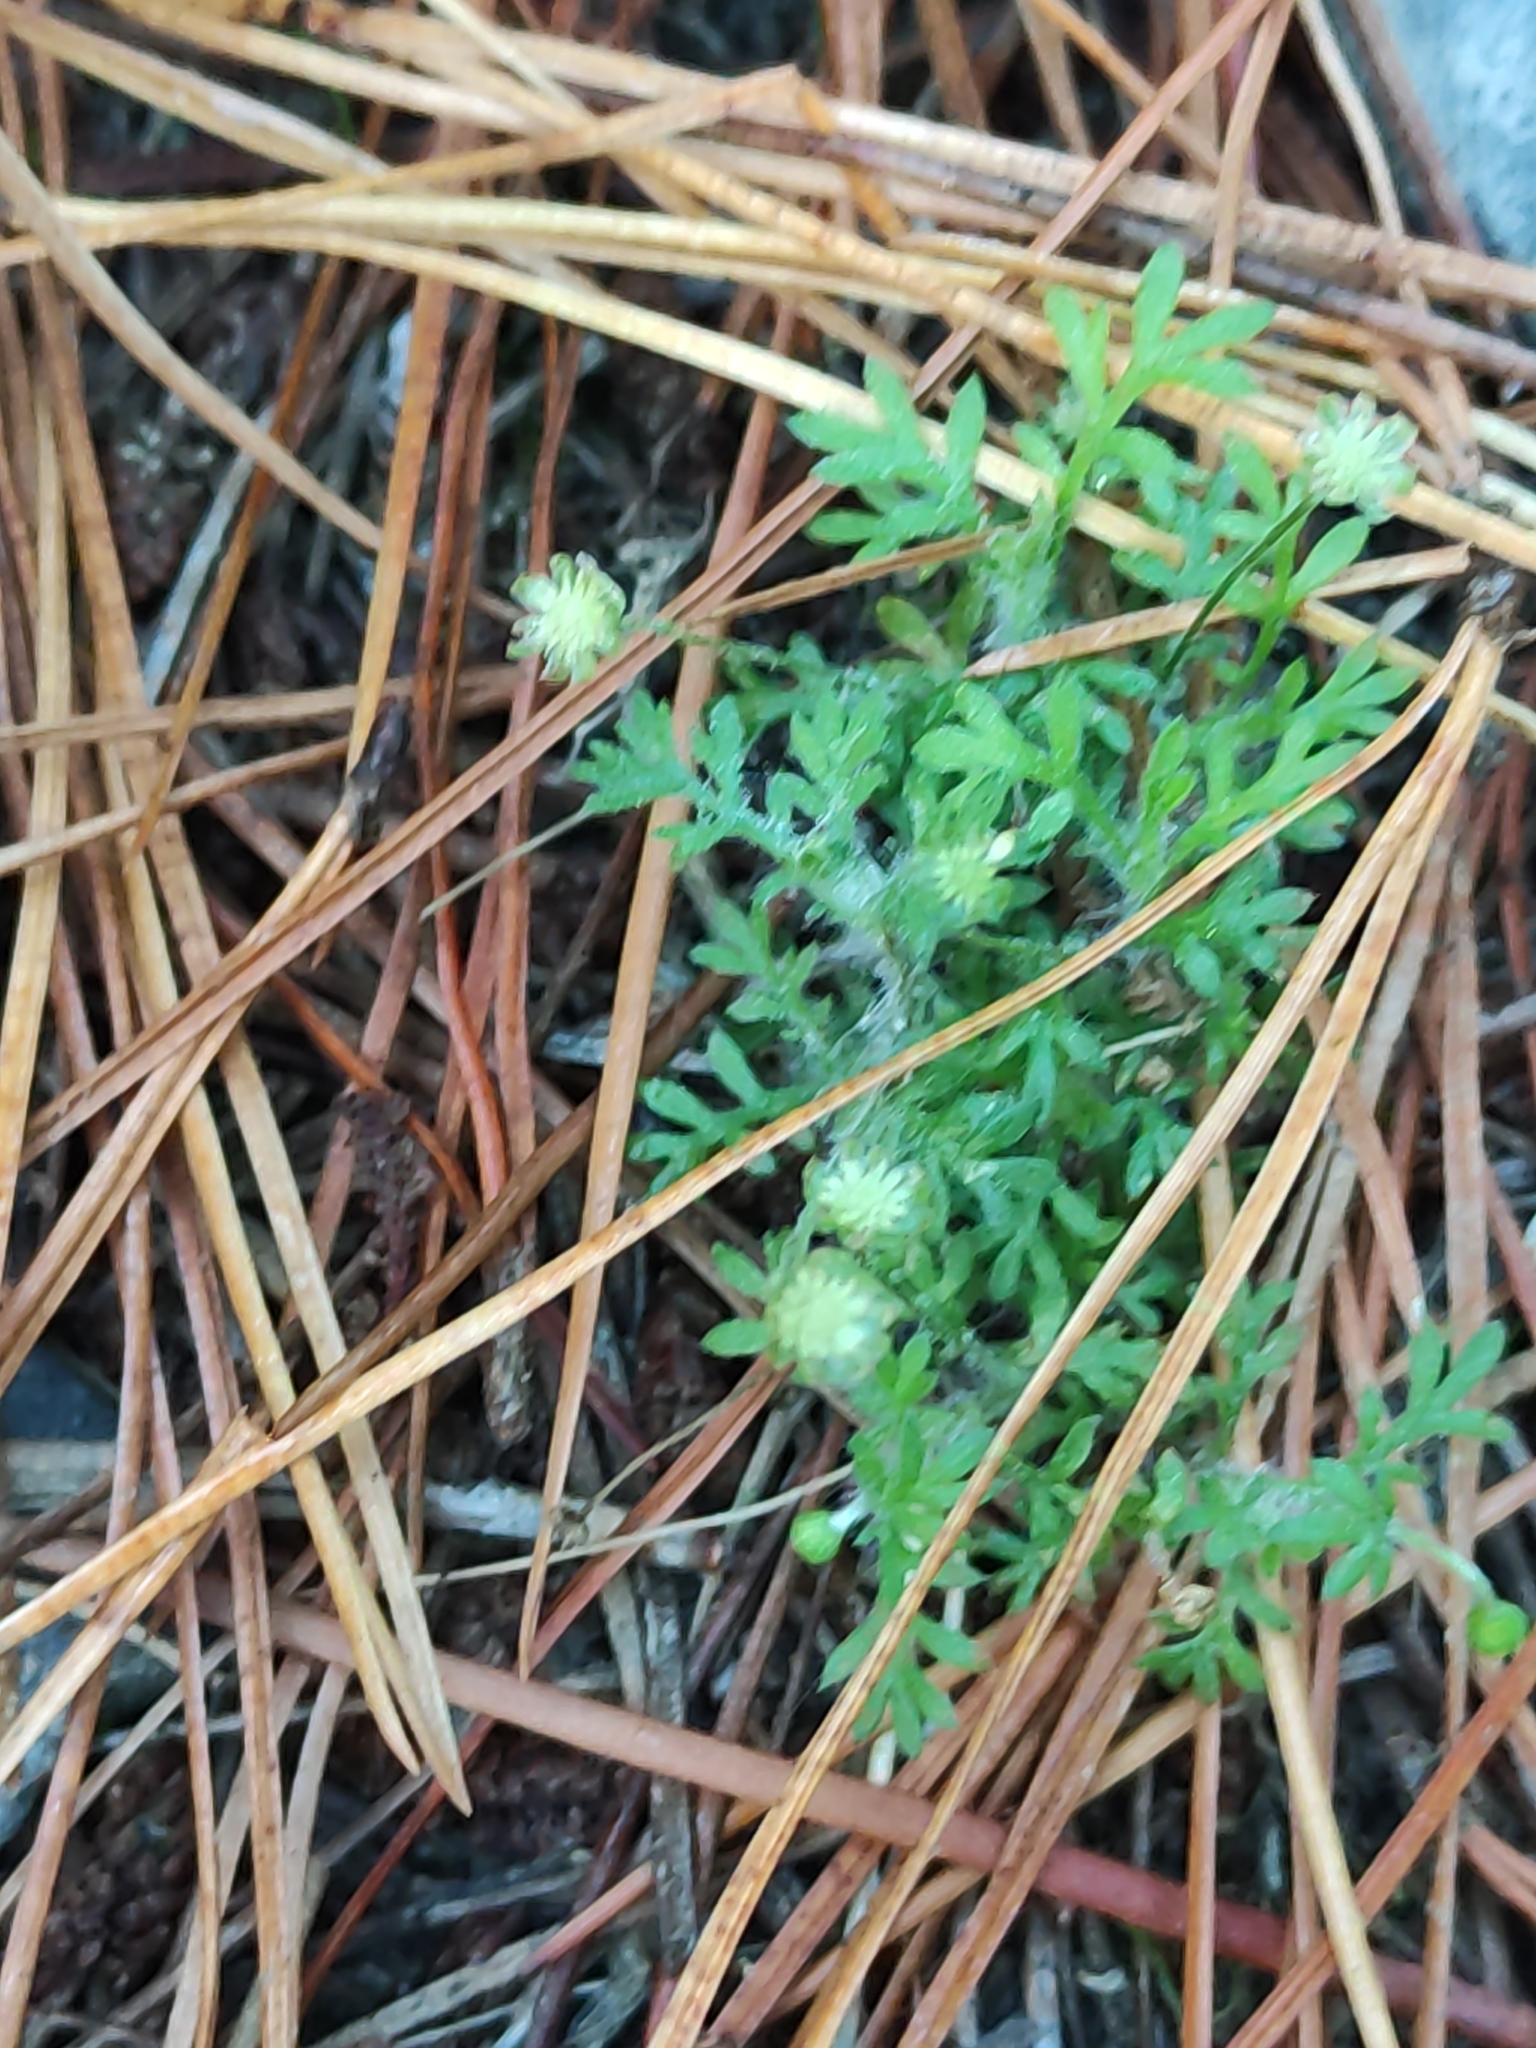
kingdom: Plantae
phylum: Tracheophyta
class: Magnoliopsida
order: Asterales
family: Asteraceae
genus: Cotula
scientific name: Cotula australis
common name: Australian waterbuttons
